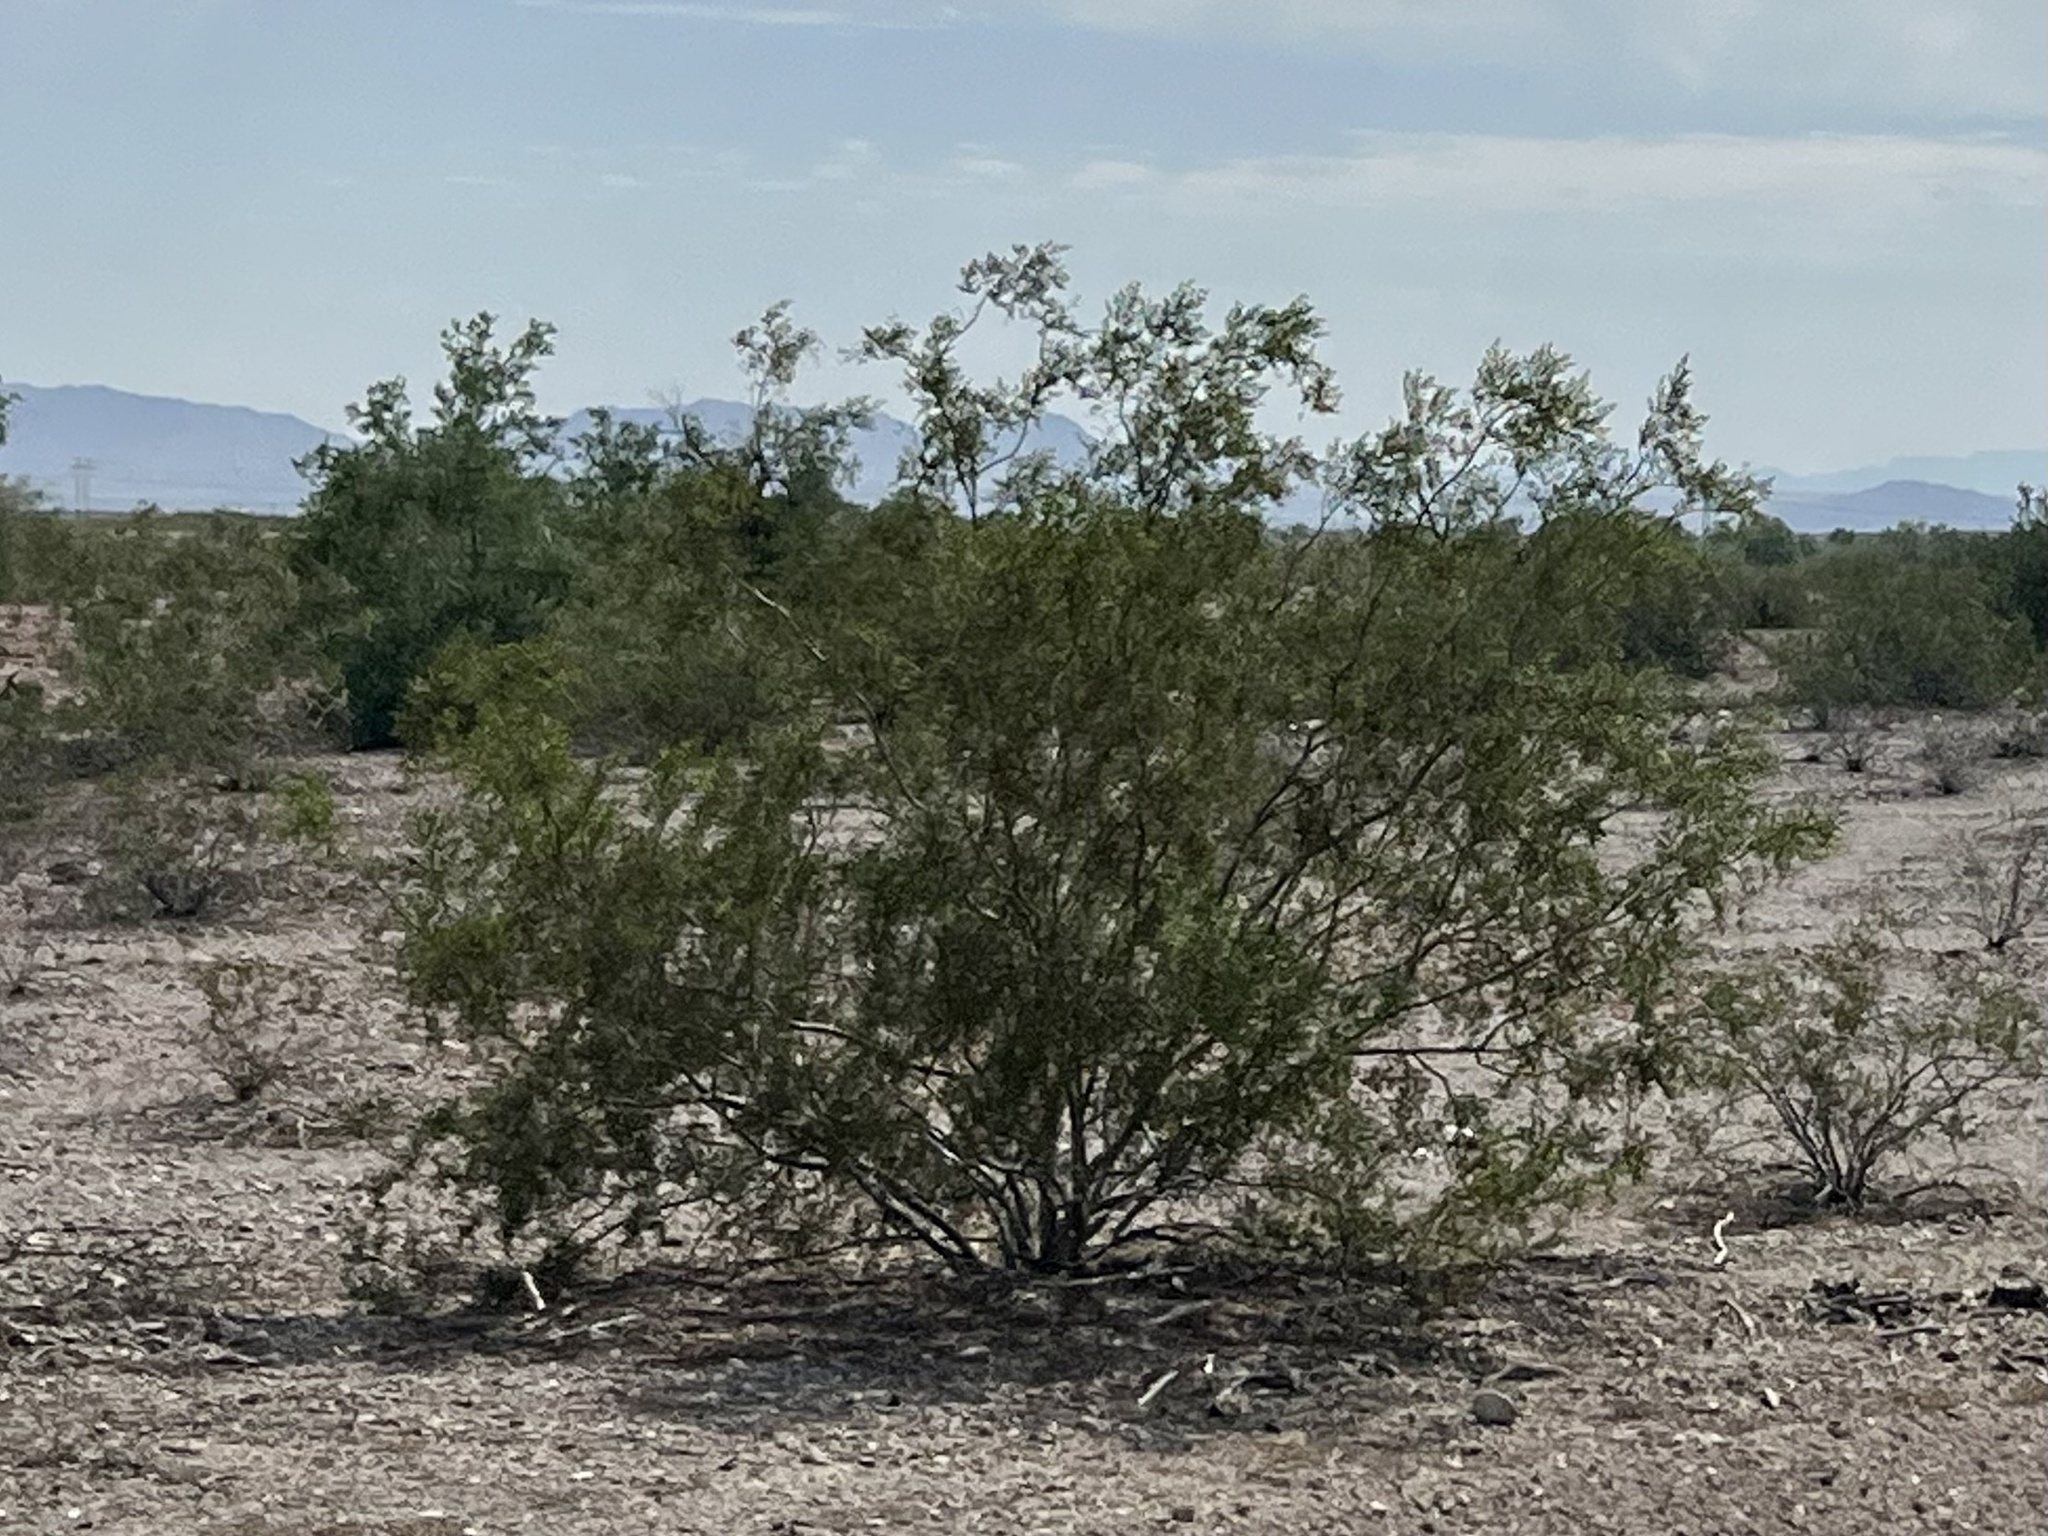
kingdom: Plantae
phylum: Tracheophyta
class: Magnoliopsida
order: Zygophyllales
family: Zygophyllaceae
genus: Larrea
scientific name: Larrea tridentata
